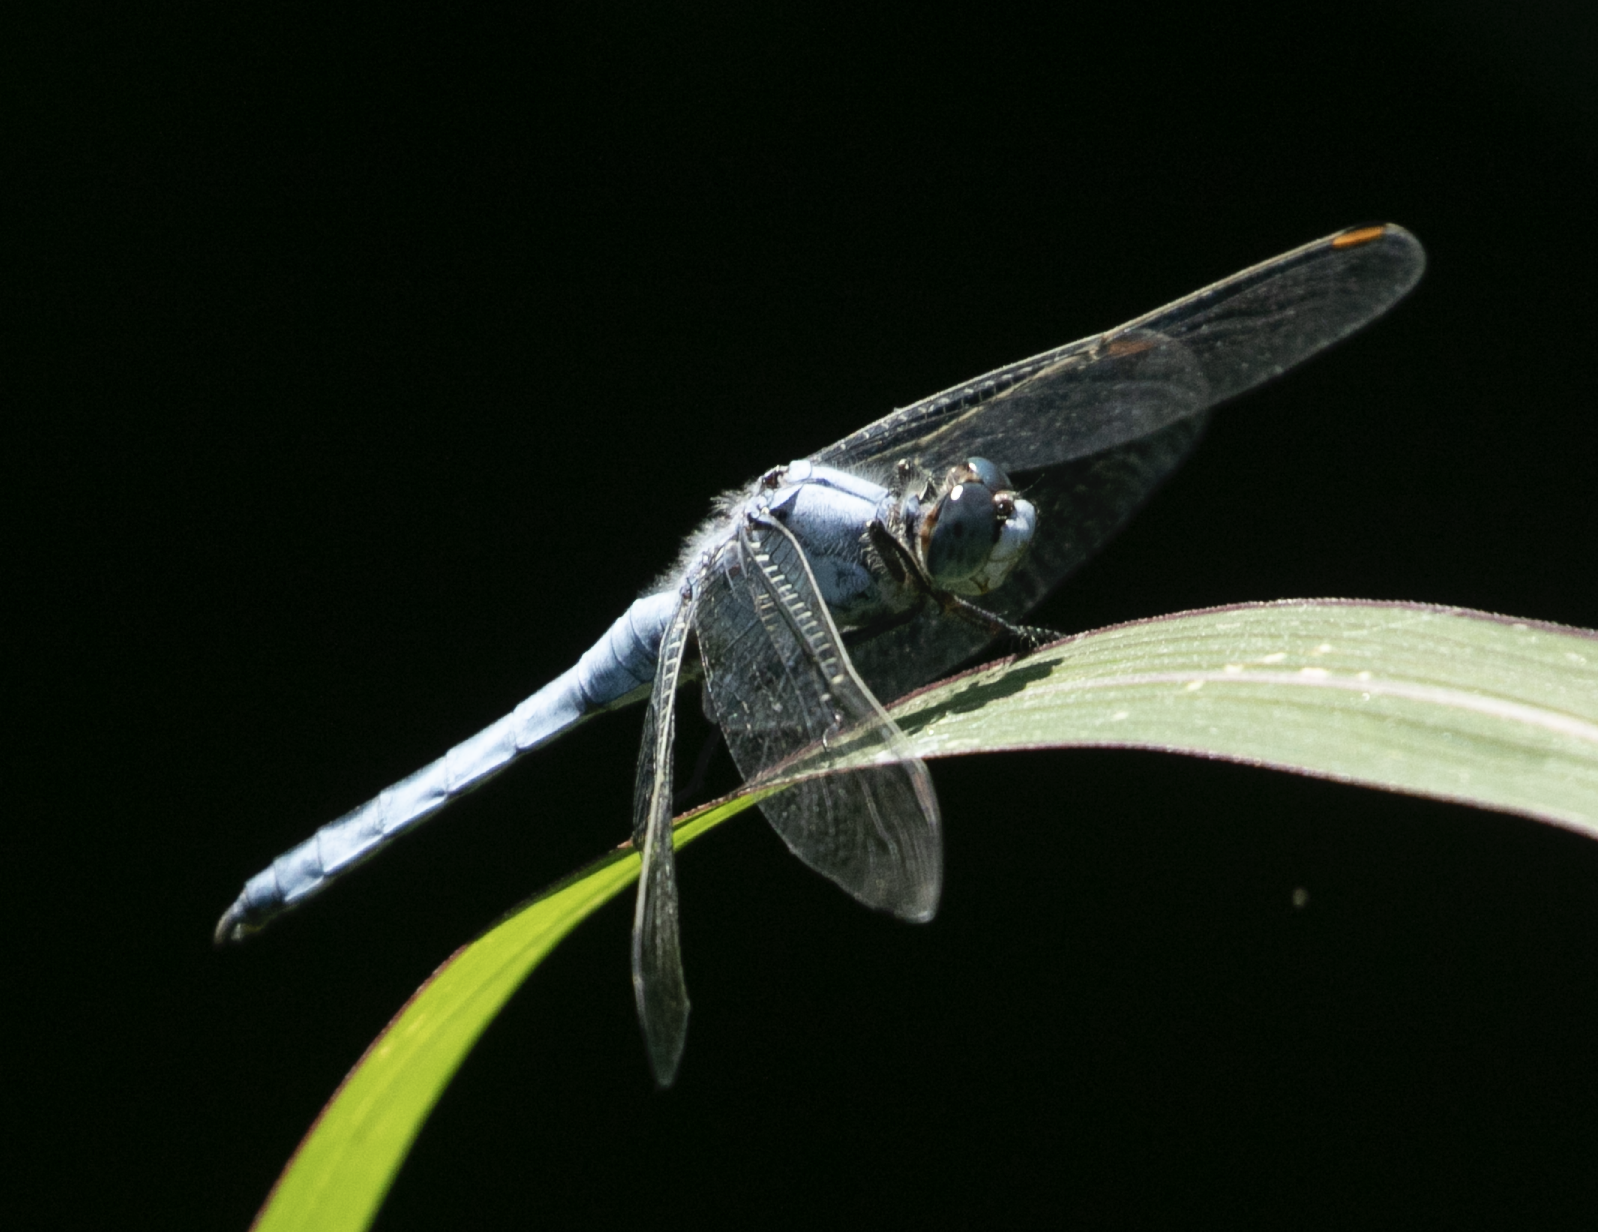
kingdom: Animalia
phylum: Arthropoda
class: Insecta
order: Odonata
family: Libellulidae
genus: Orthetrum
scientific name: Orthetrum brunneum
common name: Southern skimmer
